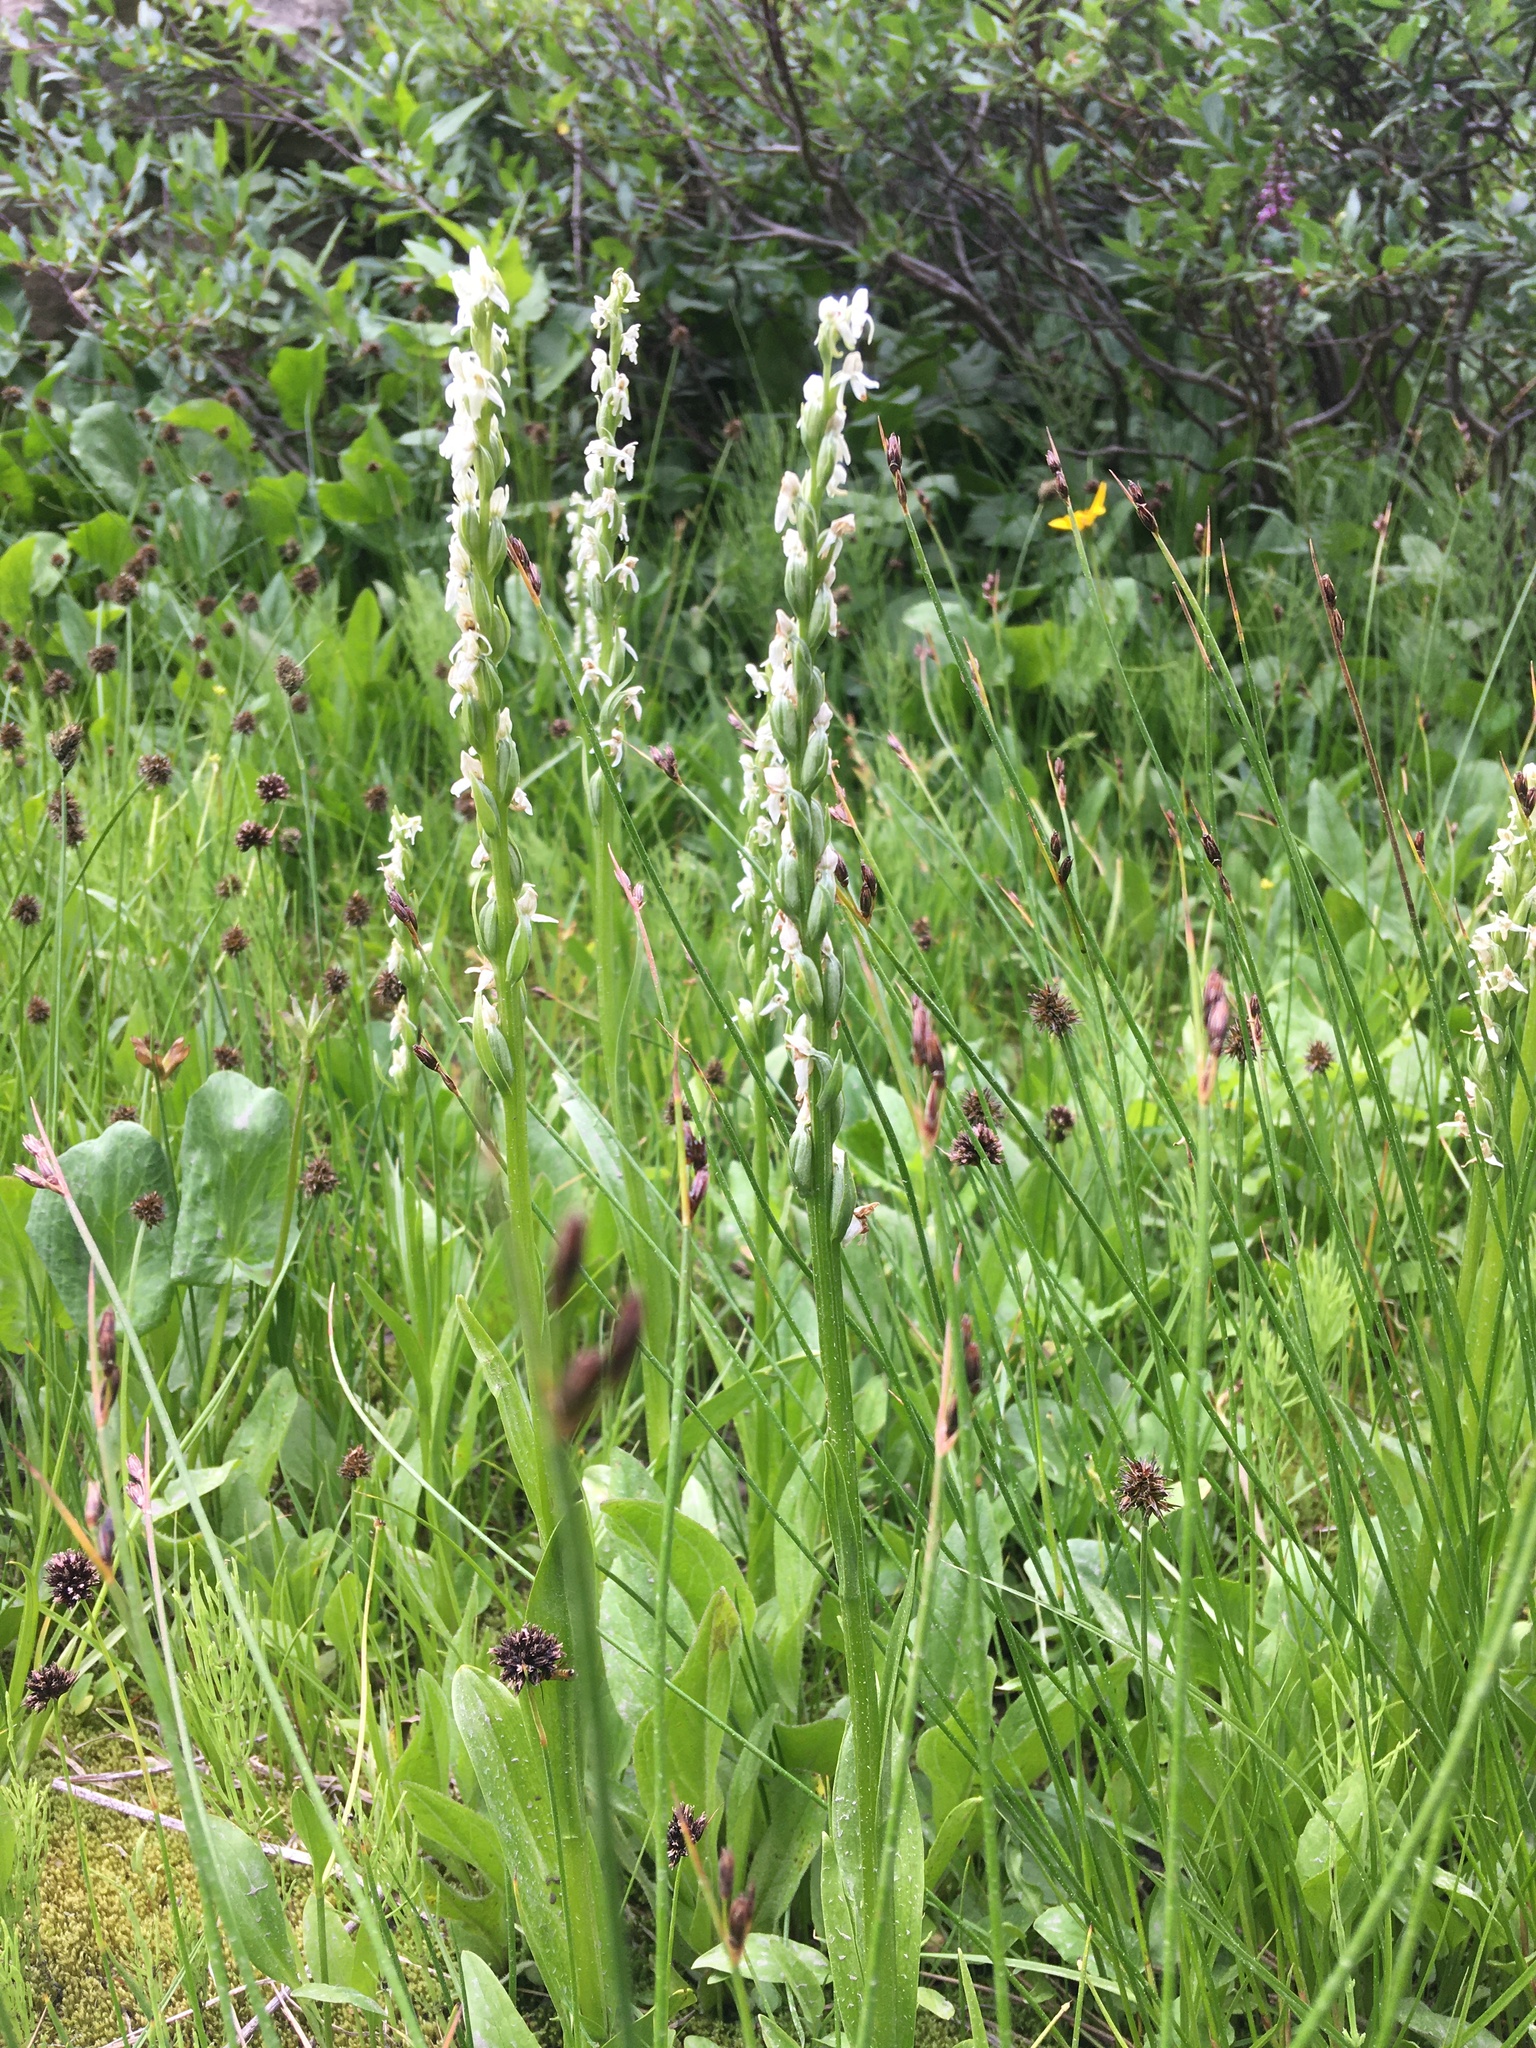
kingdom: Plantae
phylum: Tracheophyta
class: Liliopsida
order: Asparagales
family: Orchidaceae
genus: Platanthera
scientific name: Platanthera dilatata
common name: Bog candles
